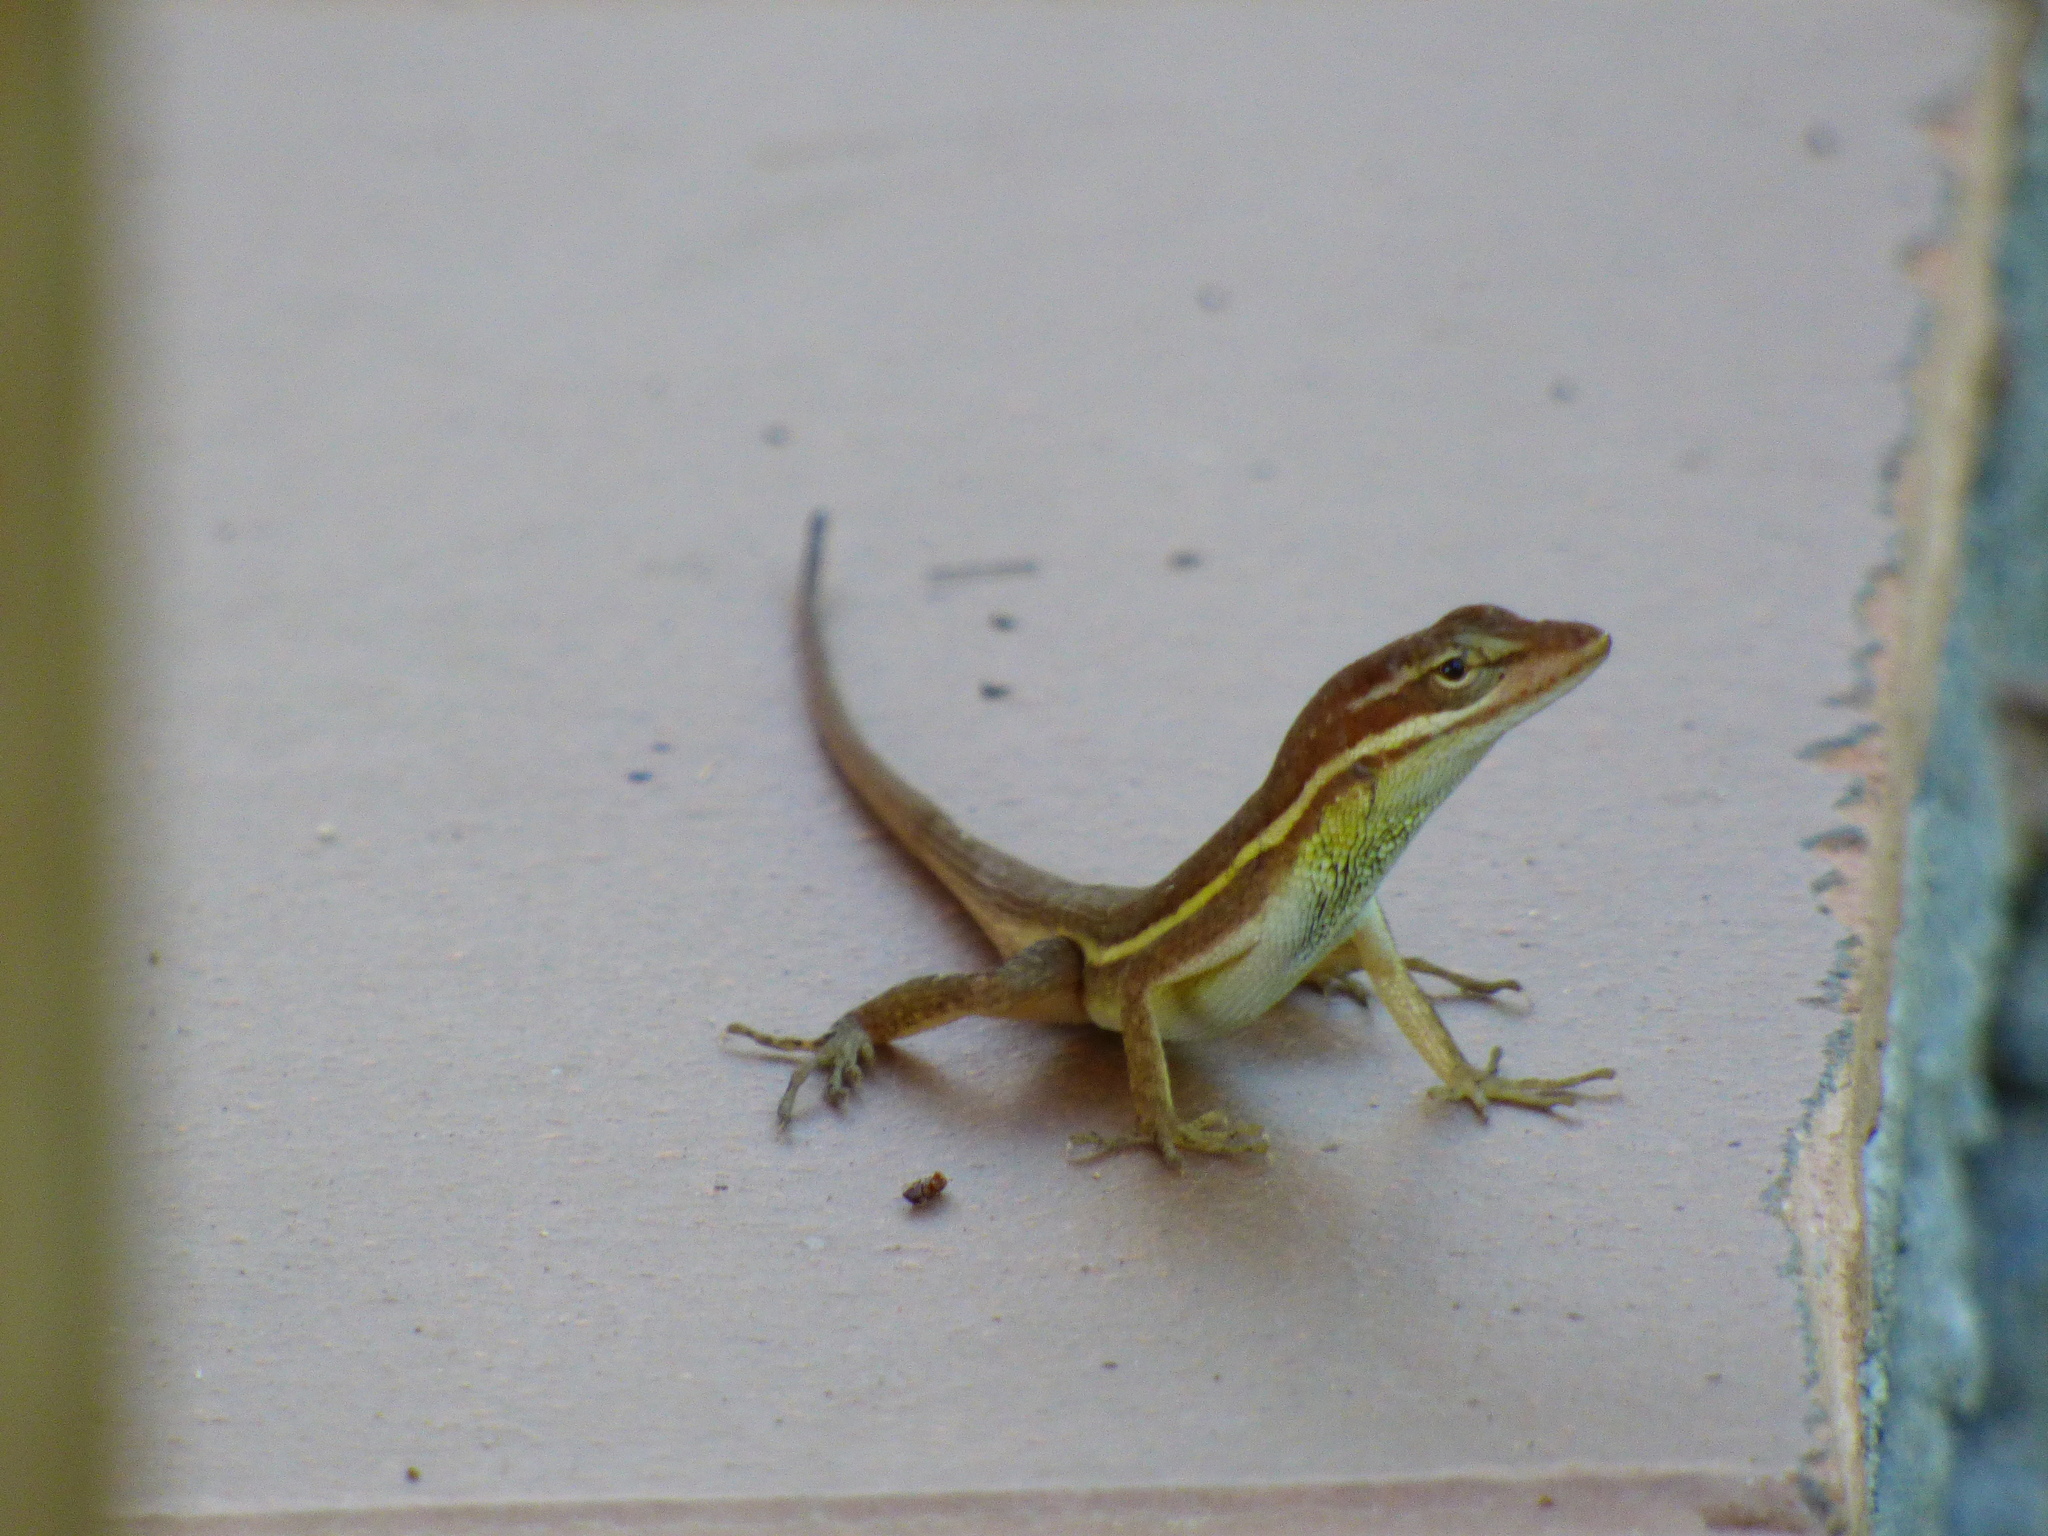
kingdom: Animalia
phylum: Chordata
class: Squamata
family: Dactyloidae
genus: Anolis
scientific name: Anolis auratus
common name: Grass anole
